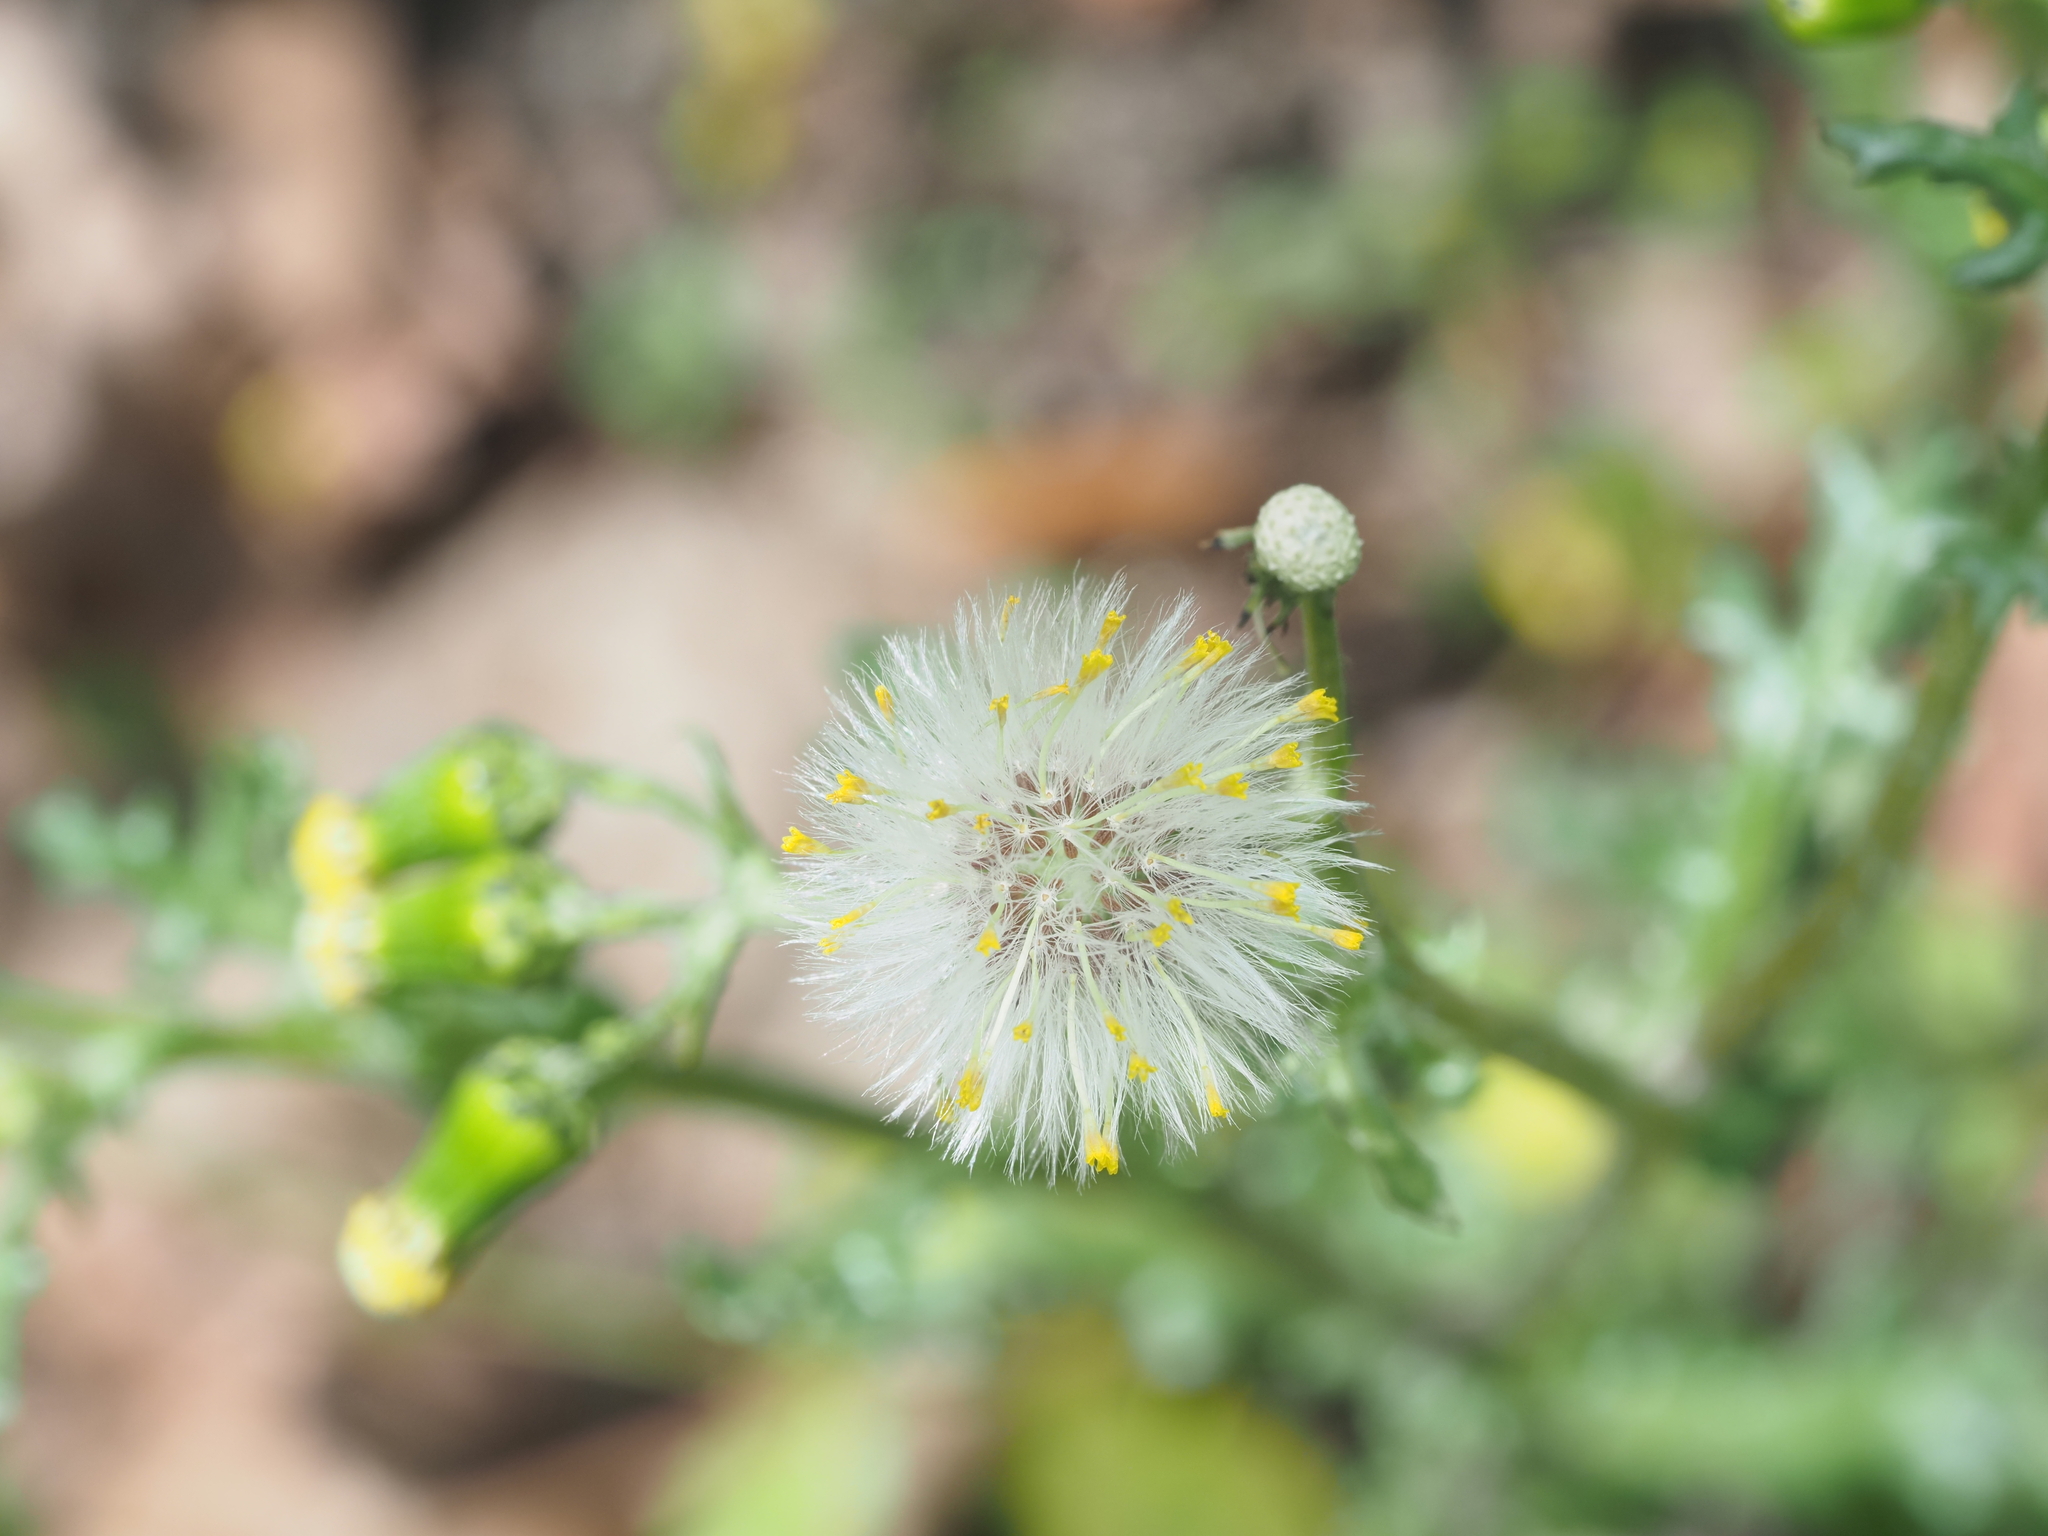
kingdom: Plantae
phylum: Tracheophyta
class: Magnoliopsida
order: Asterales
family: Asteraceae
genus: Senecio
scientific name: Senecio vulgaris
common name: Old-man-in-the-spring
